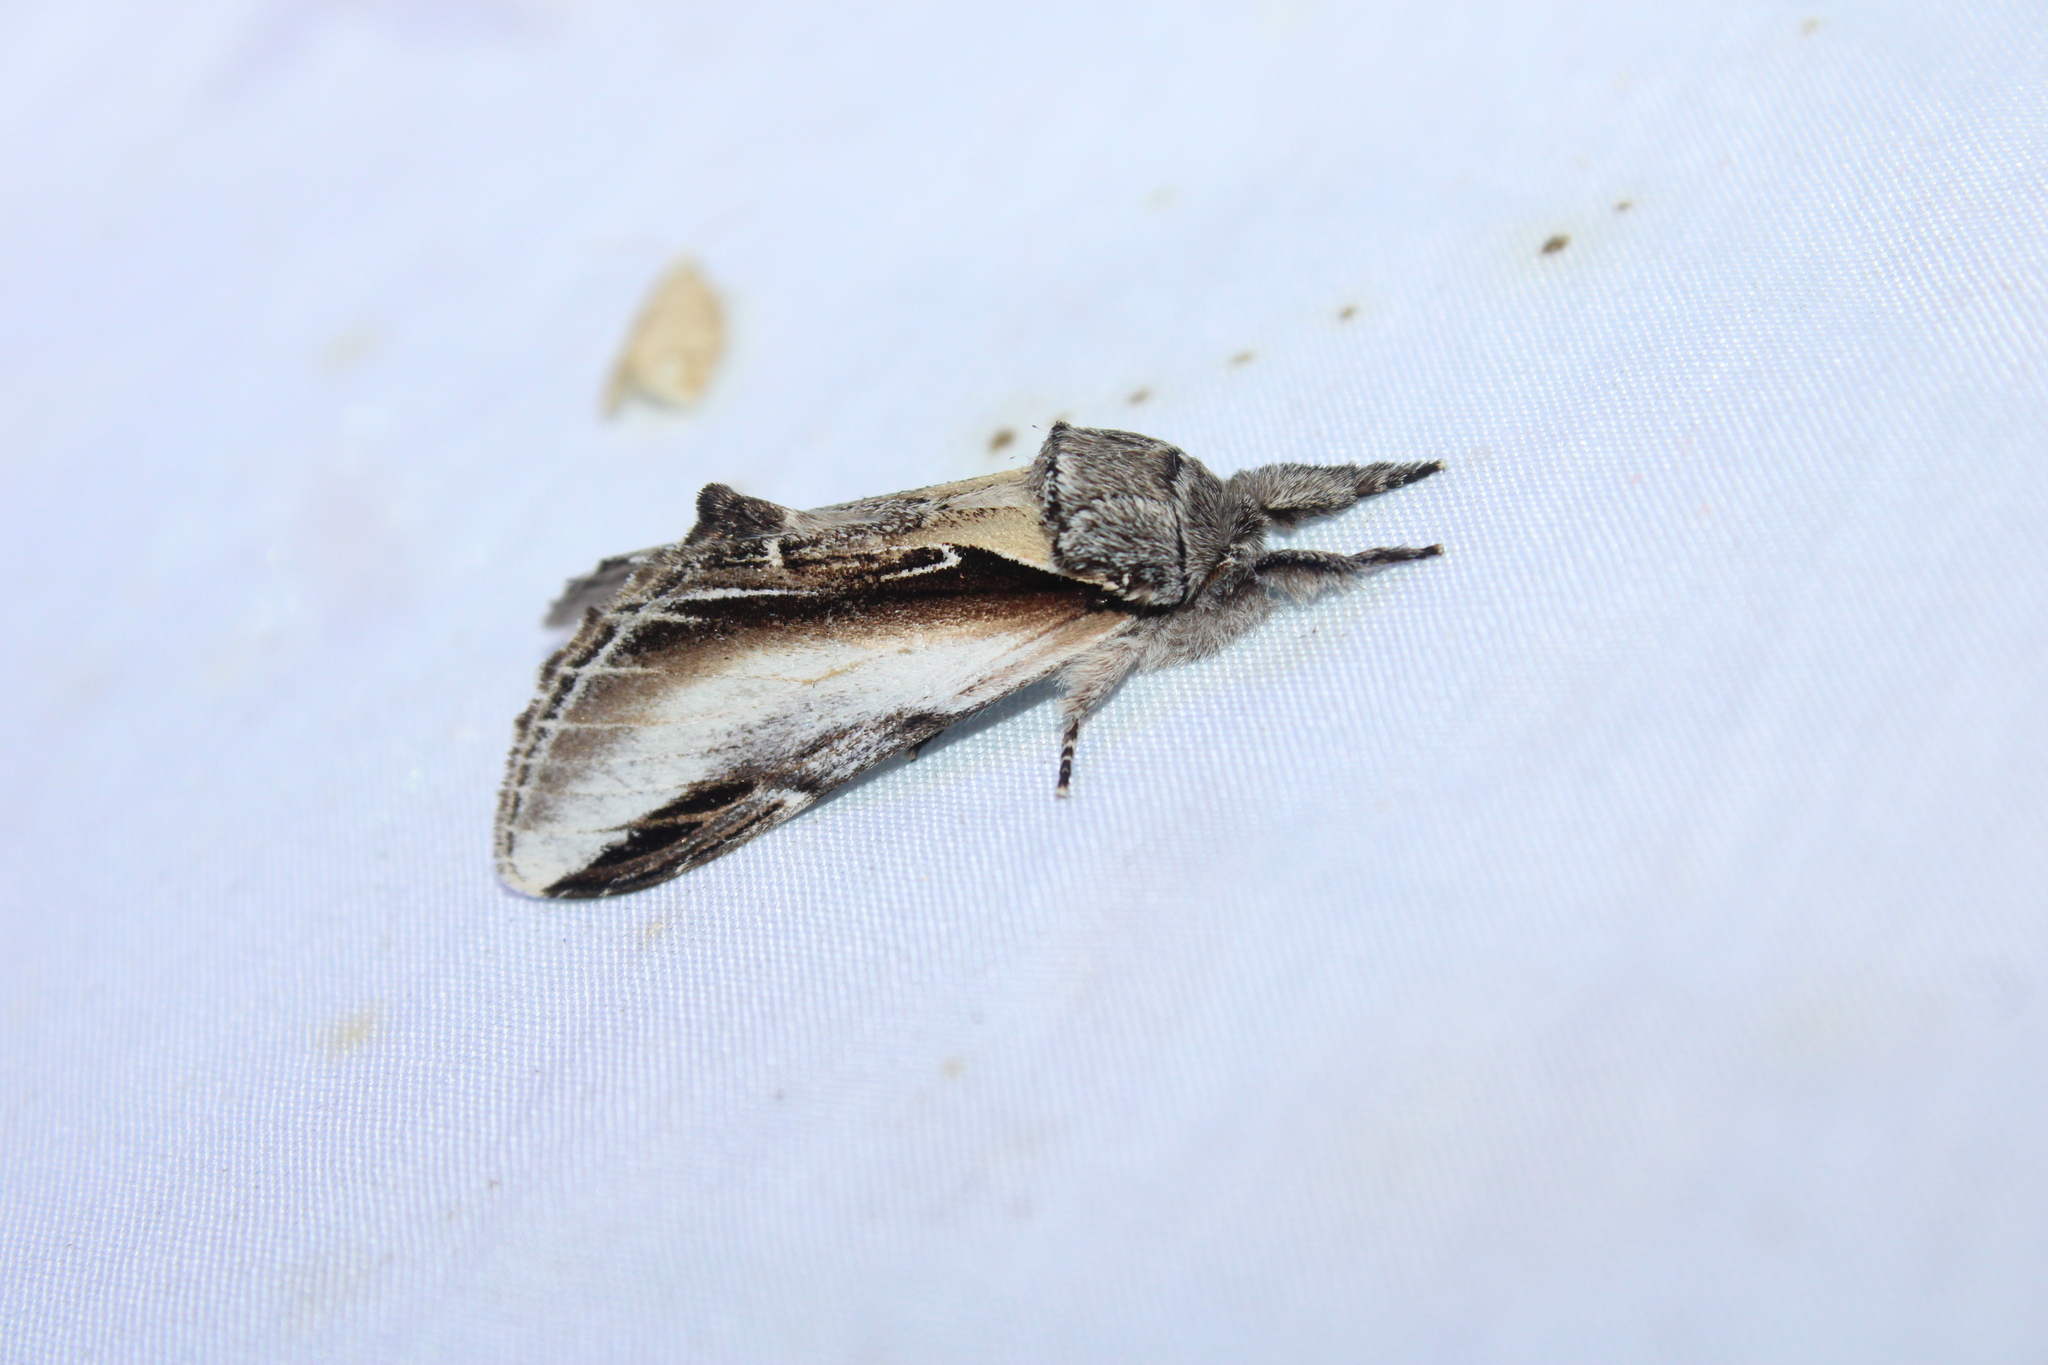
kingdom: Animalia
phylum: Arthropoda
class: Insecta
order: Lepidoptera
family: Notodontidae
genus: Pheosia
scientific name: Pheosia rimosa
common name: Black-rimmed prominent
